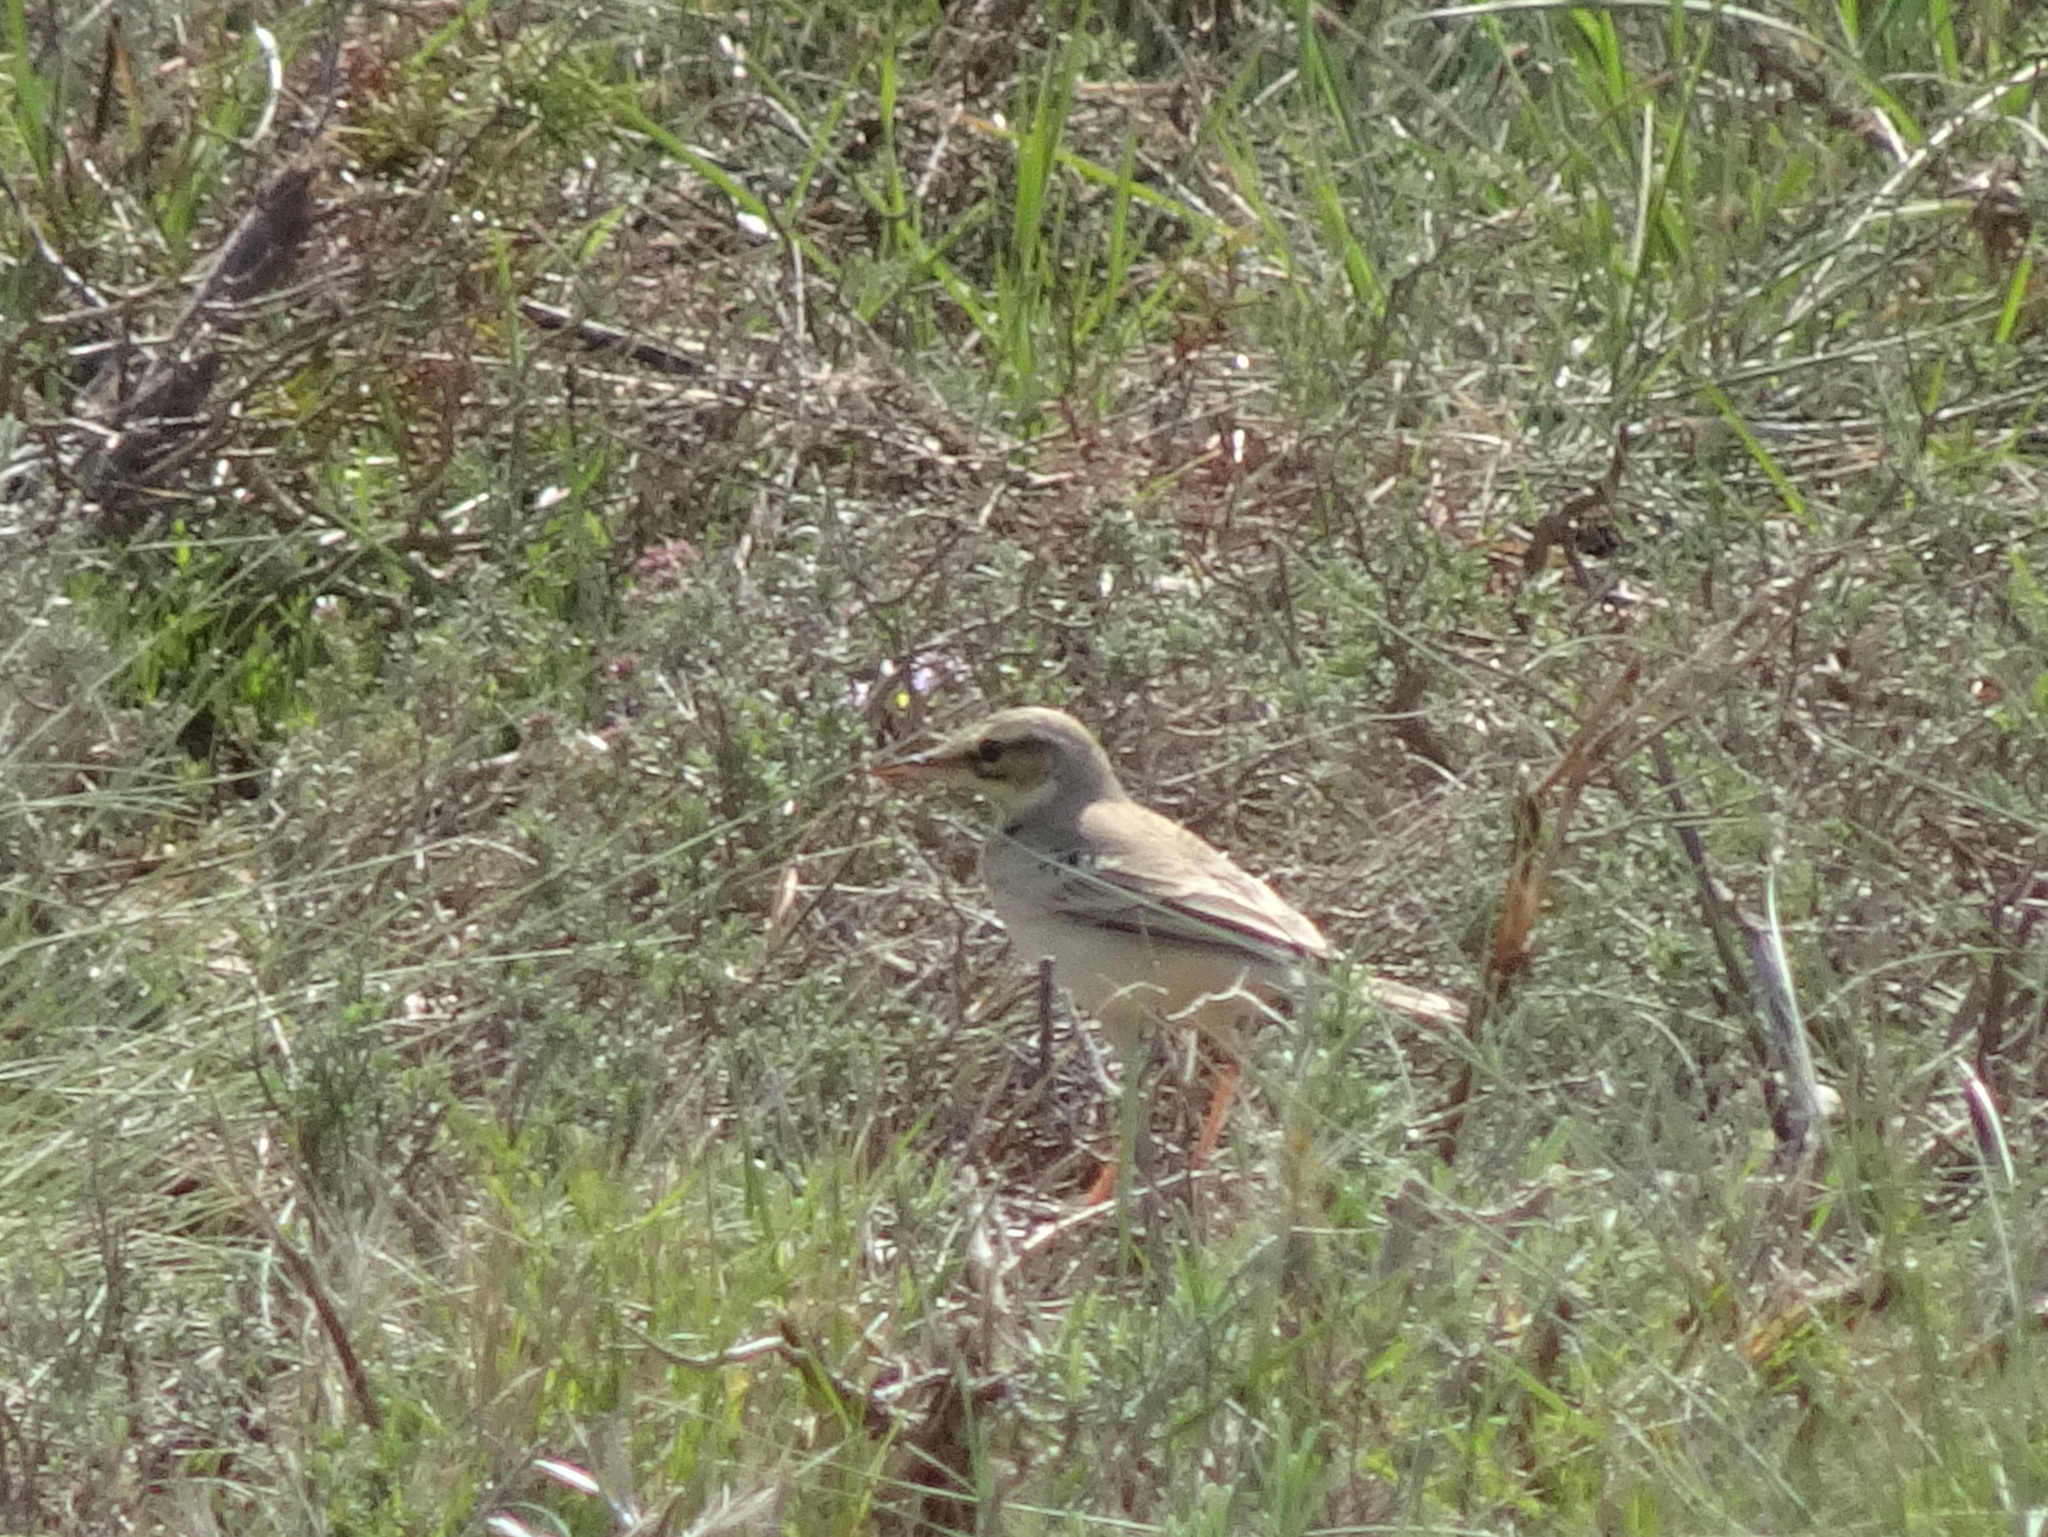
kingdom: Animalia
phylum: Chordata
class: Aves
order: Passeriformes
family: Motacillidae
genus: Anthus
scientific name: Anthus campestris
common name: Tawny pipit
